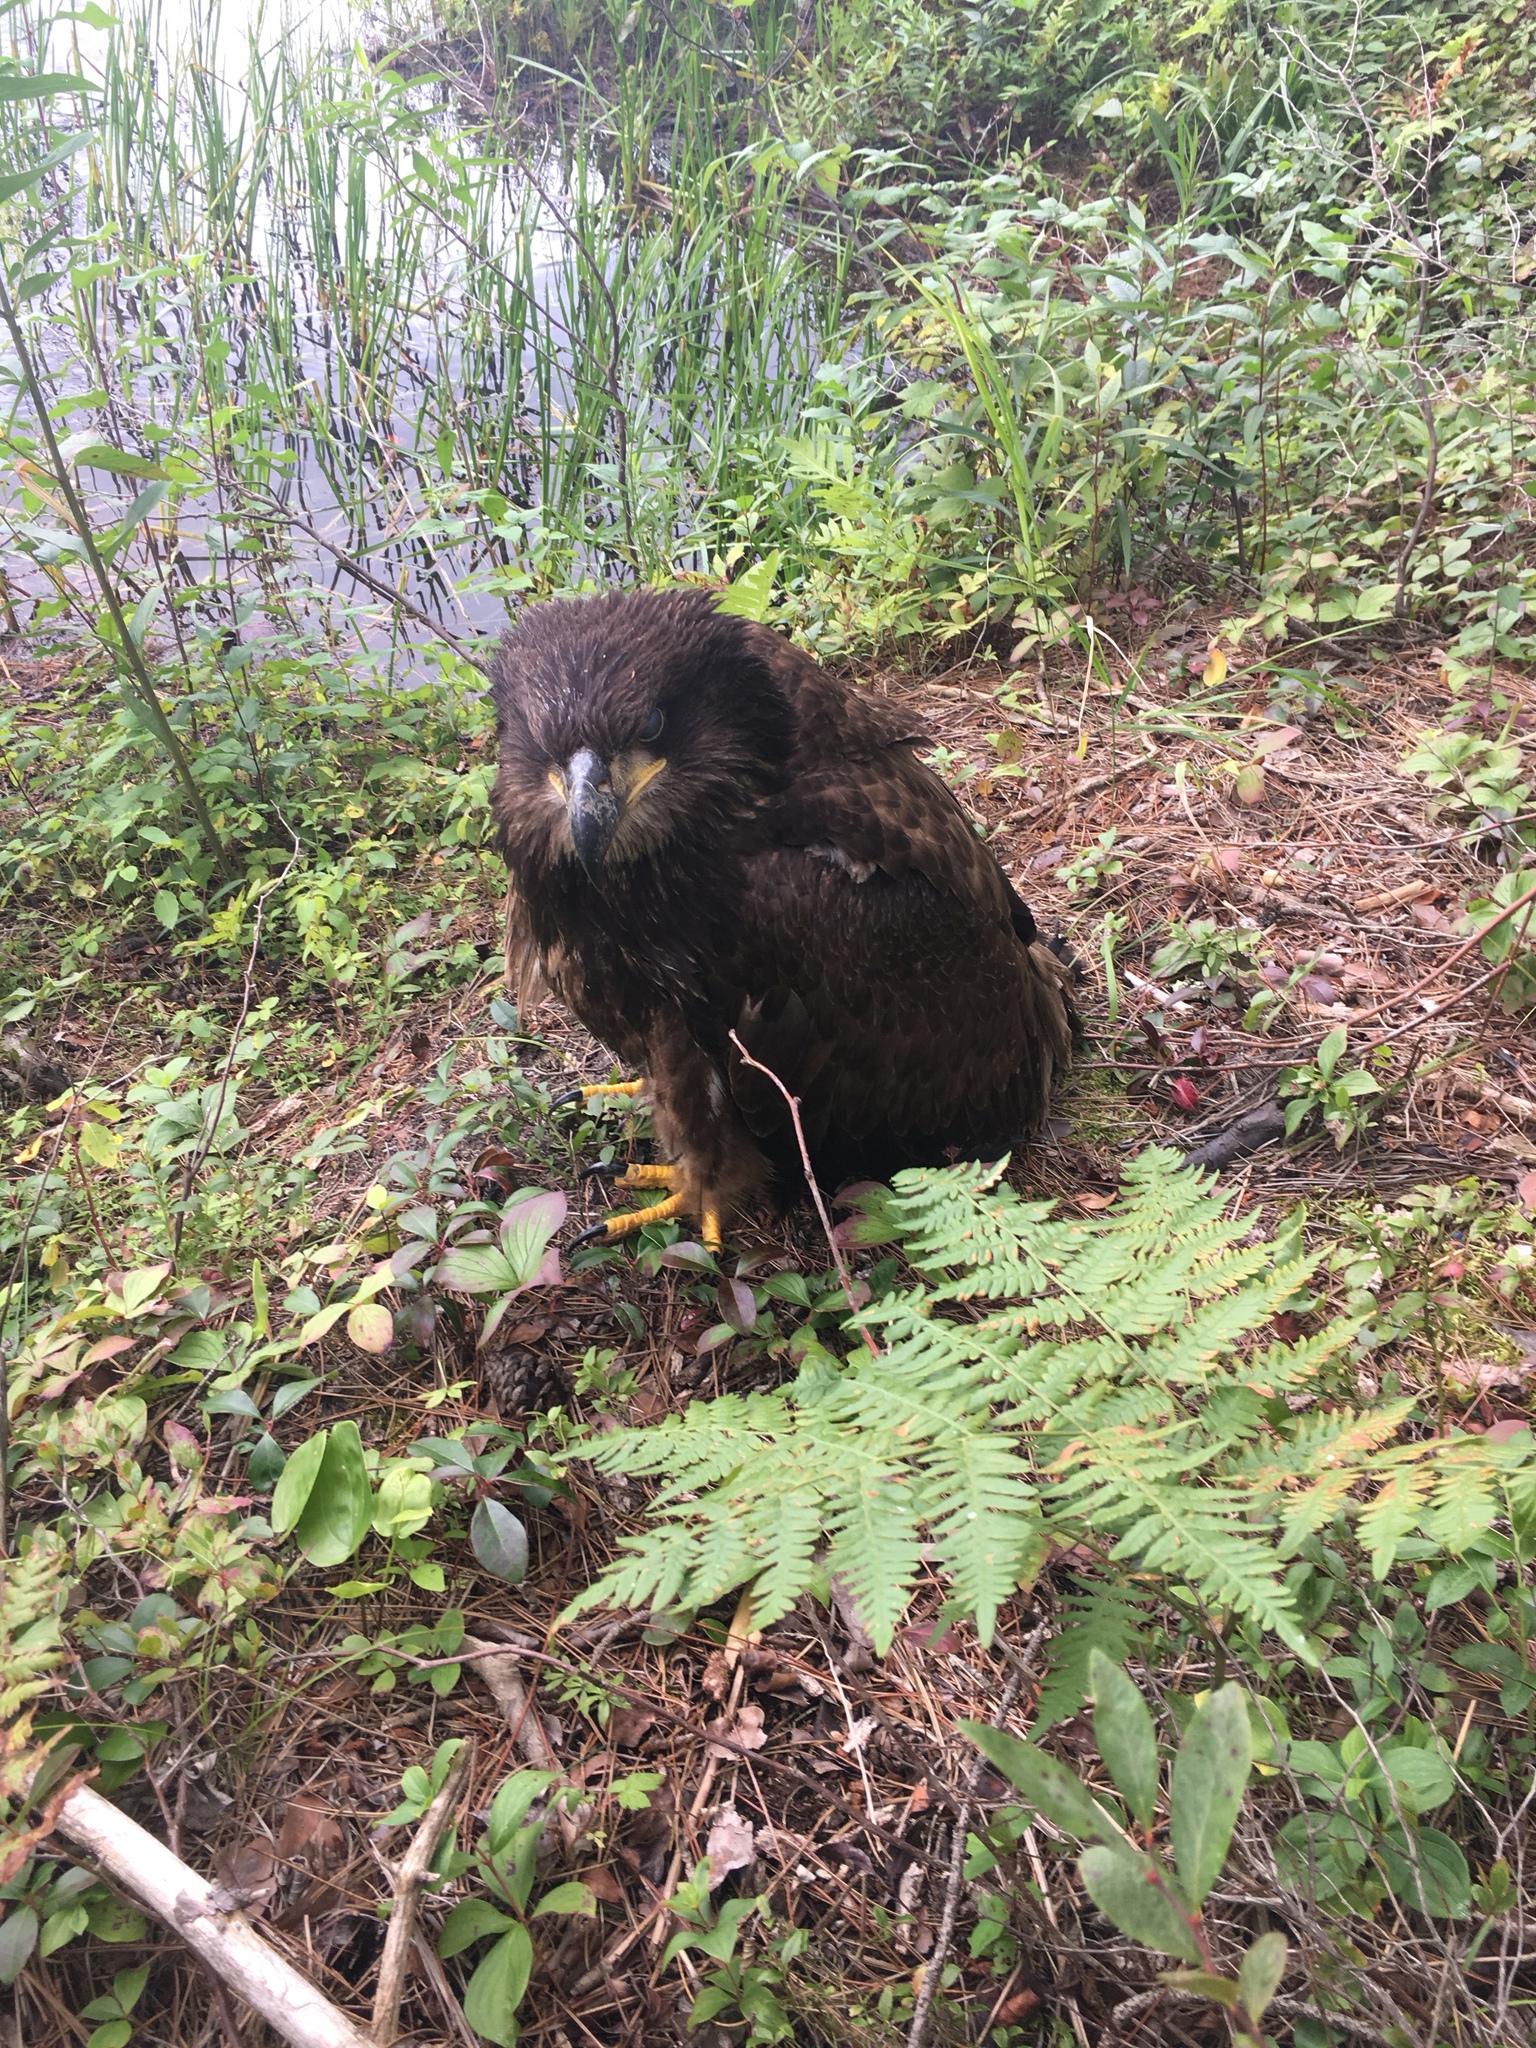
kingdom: Animalia
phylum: Chordata
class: Aves
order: Accipitriformes
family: Accipitridae
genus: Haliaeetus
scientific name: Haliaeetus leucocephalus
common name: Bald eagle
